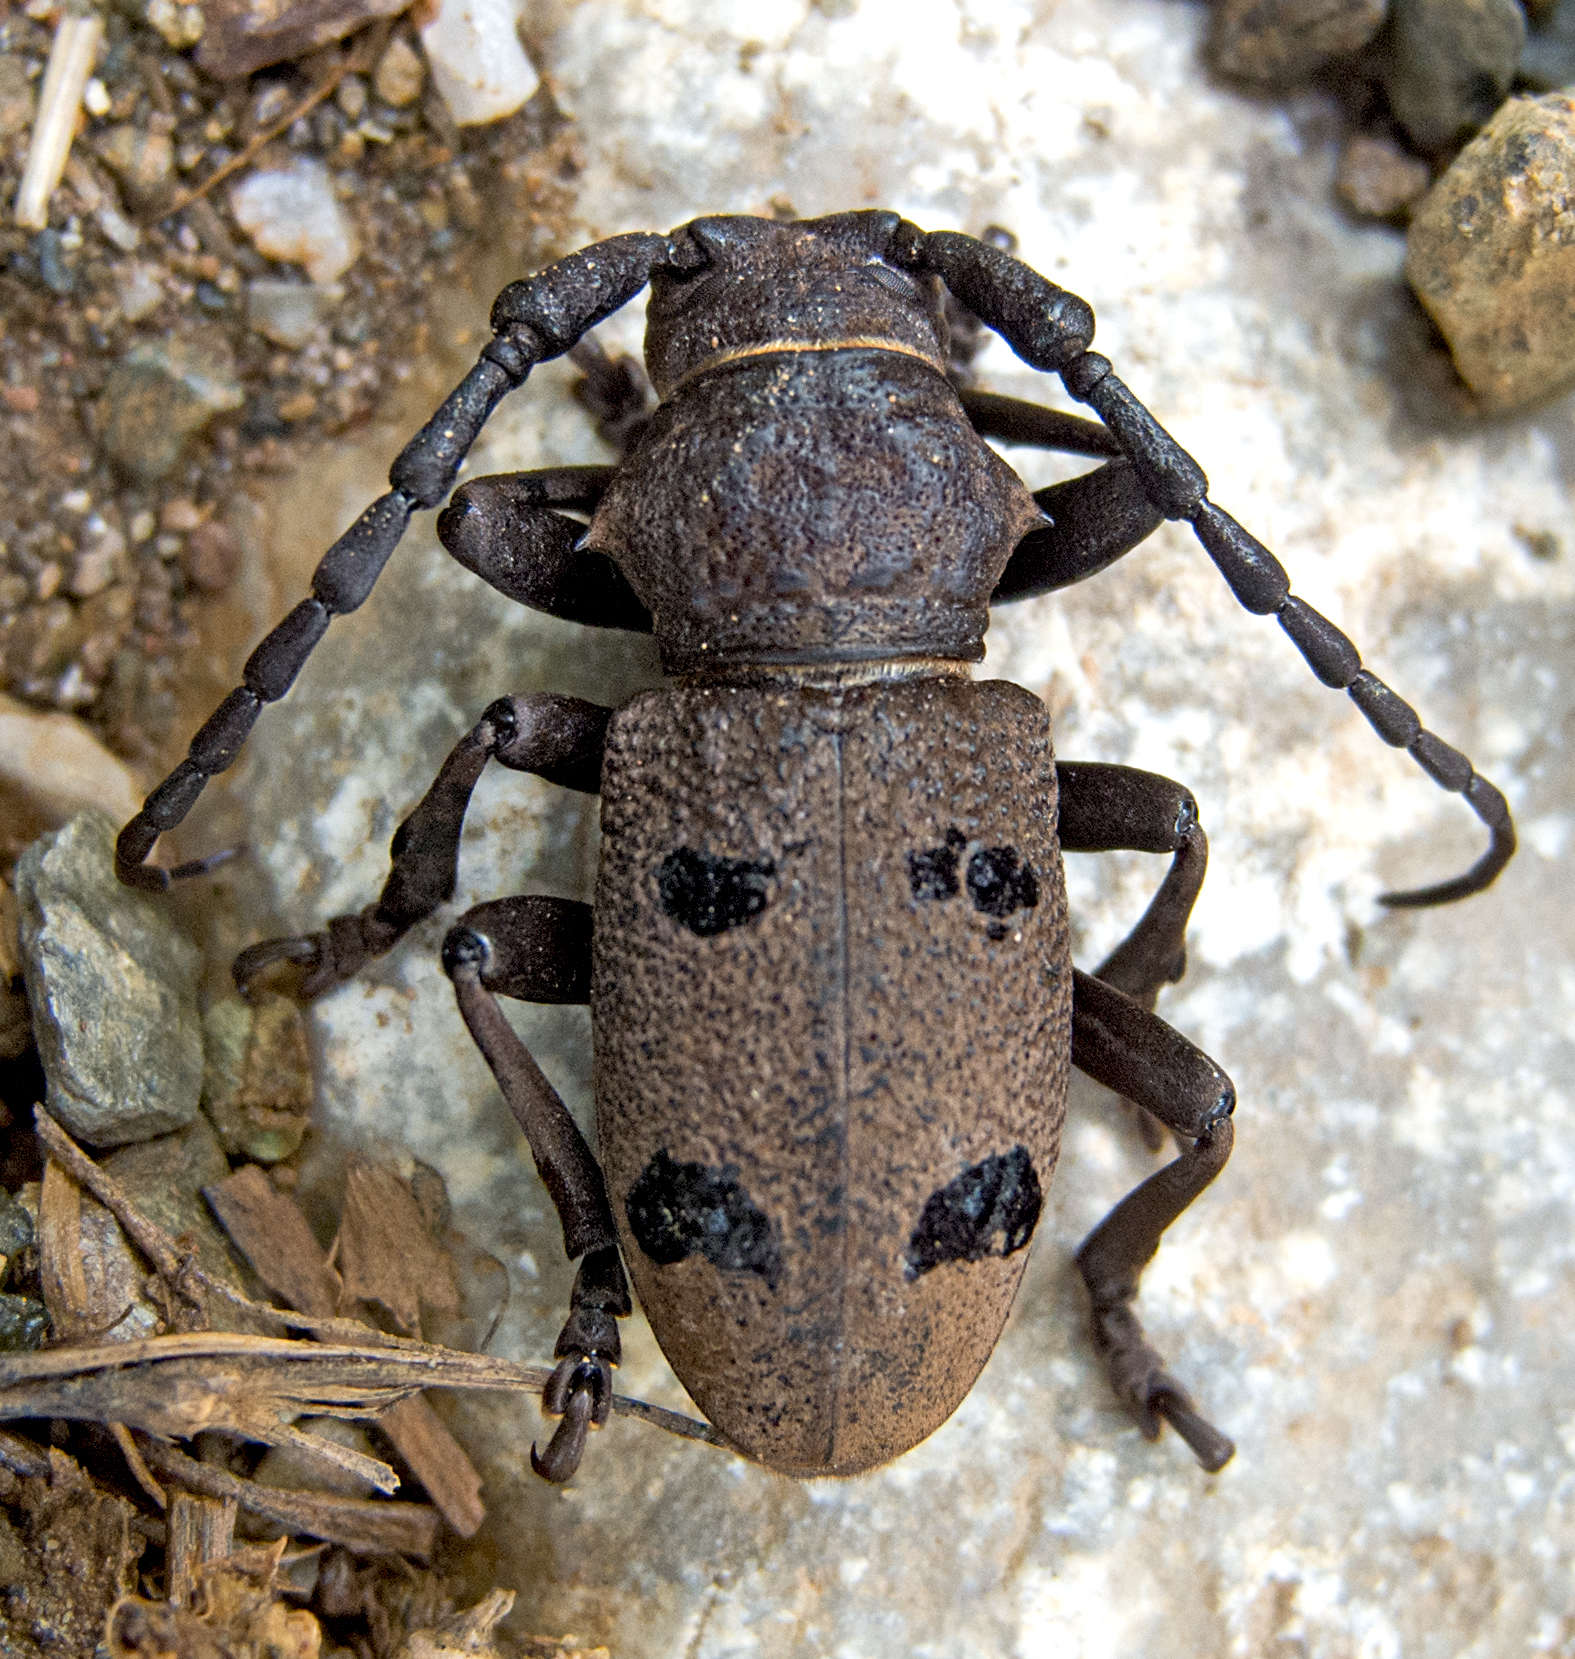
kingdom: Animalia
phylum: Arthropoda
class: Insecta
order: Coleoptera
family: Cerambycidae
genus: Herophila
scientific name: Herophila tristis
